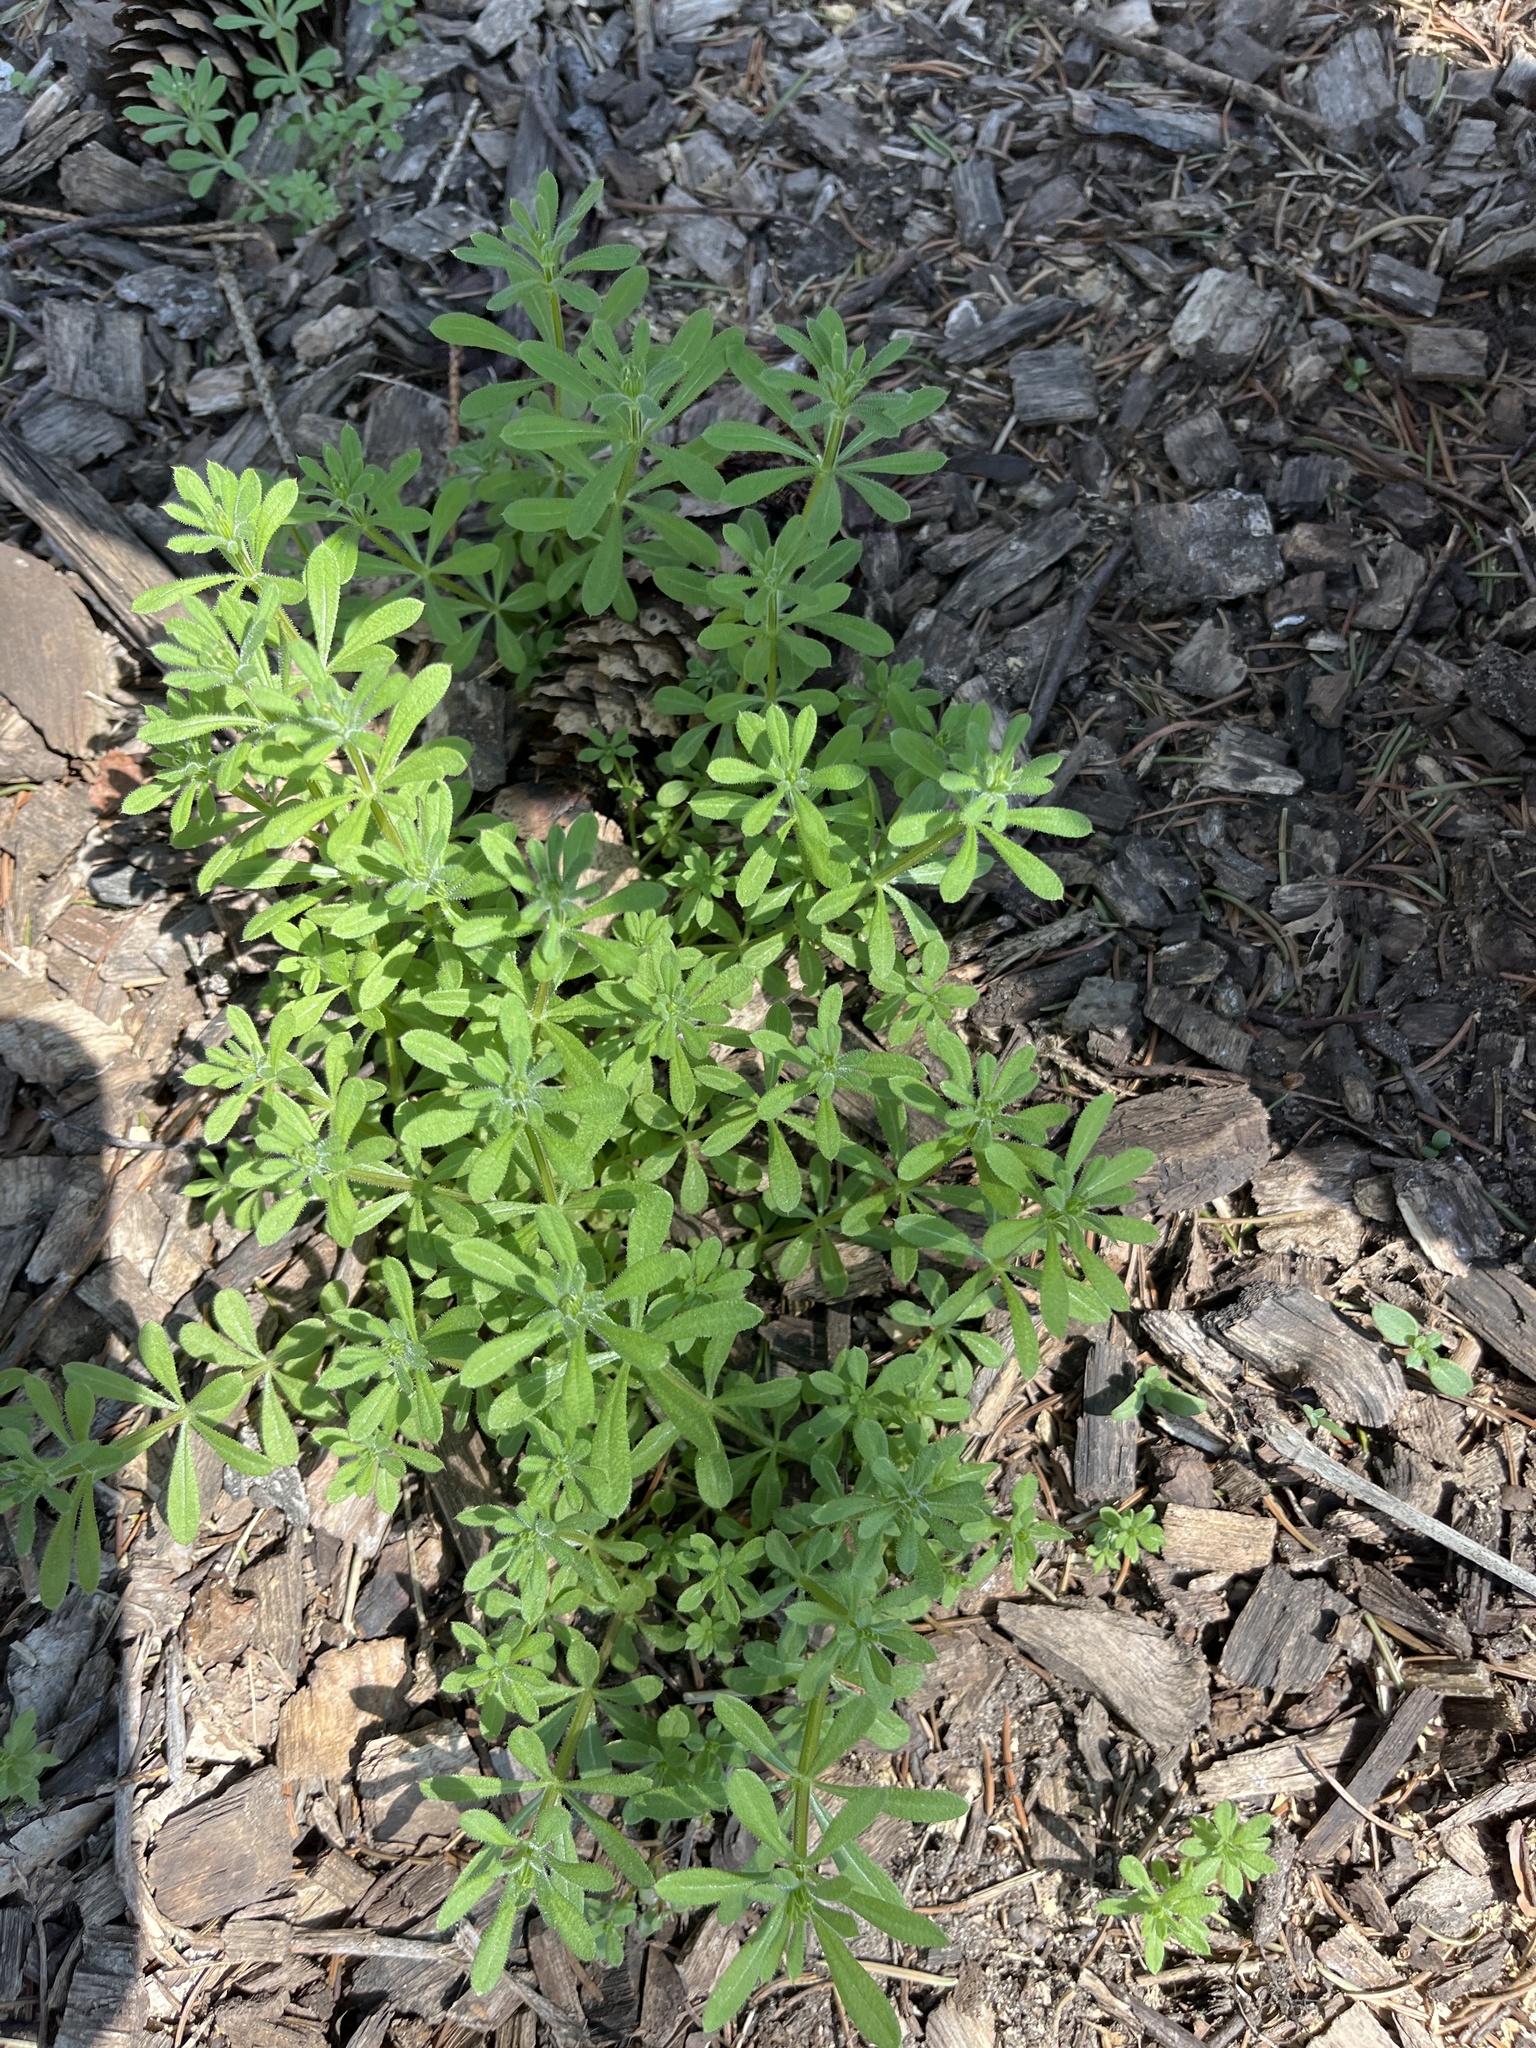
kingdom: Plantae
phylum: Tracheophyta
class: Magnoliopsida
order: Gentianales
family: Rubiaceae
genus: Galium
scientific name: Galium aparine
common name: Cleavers
